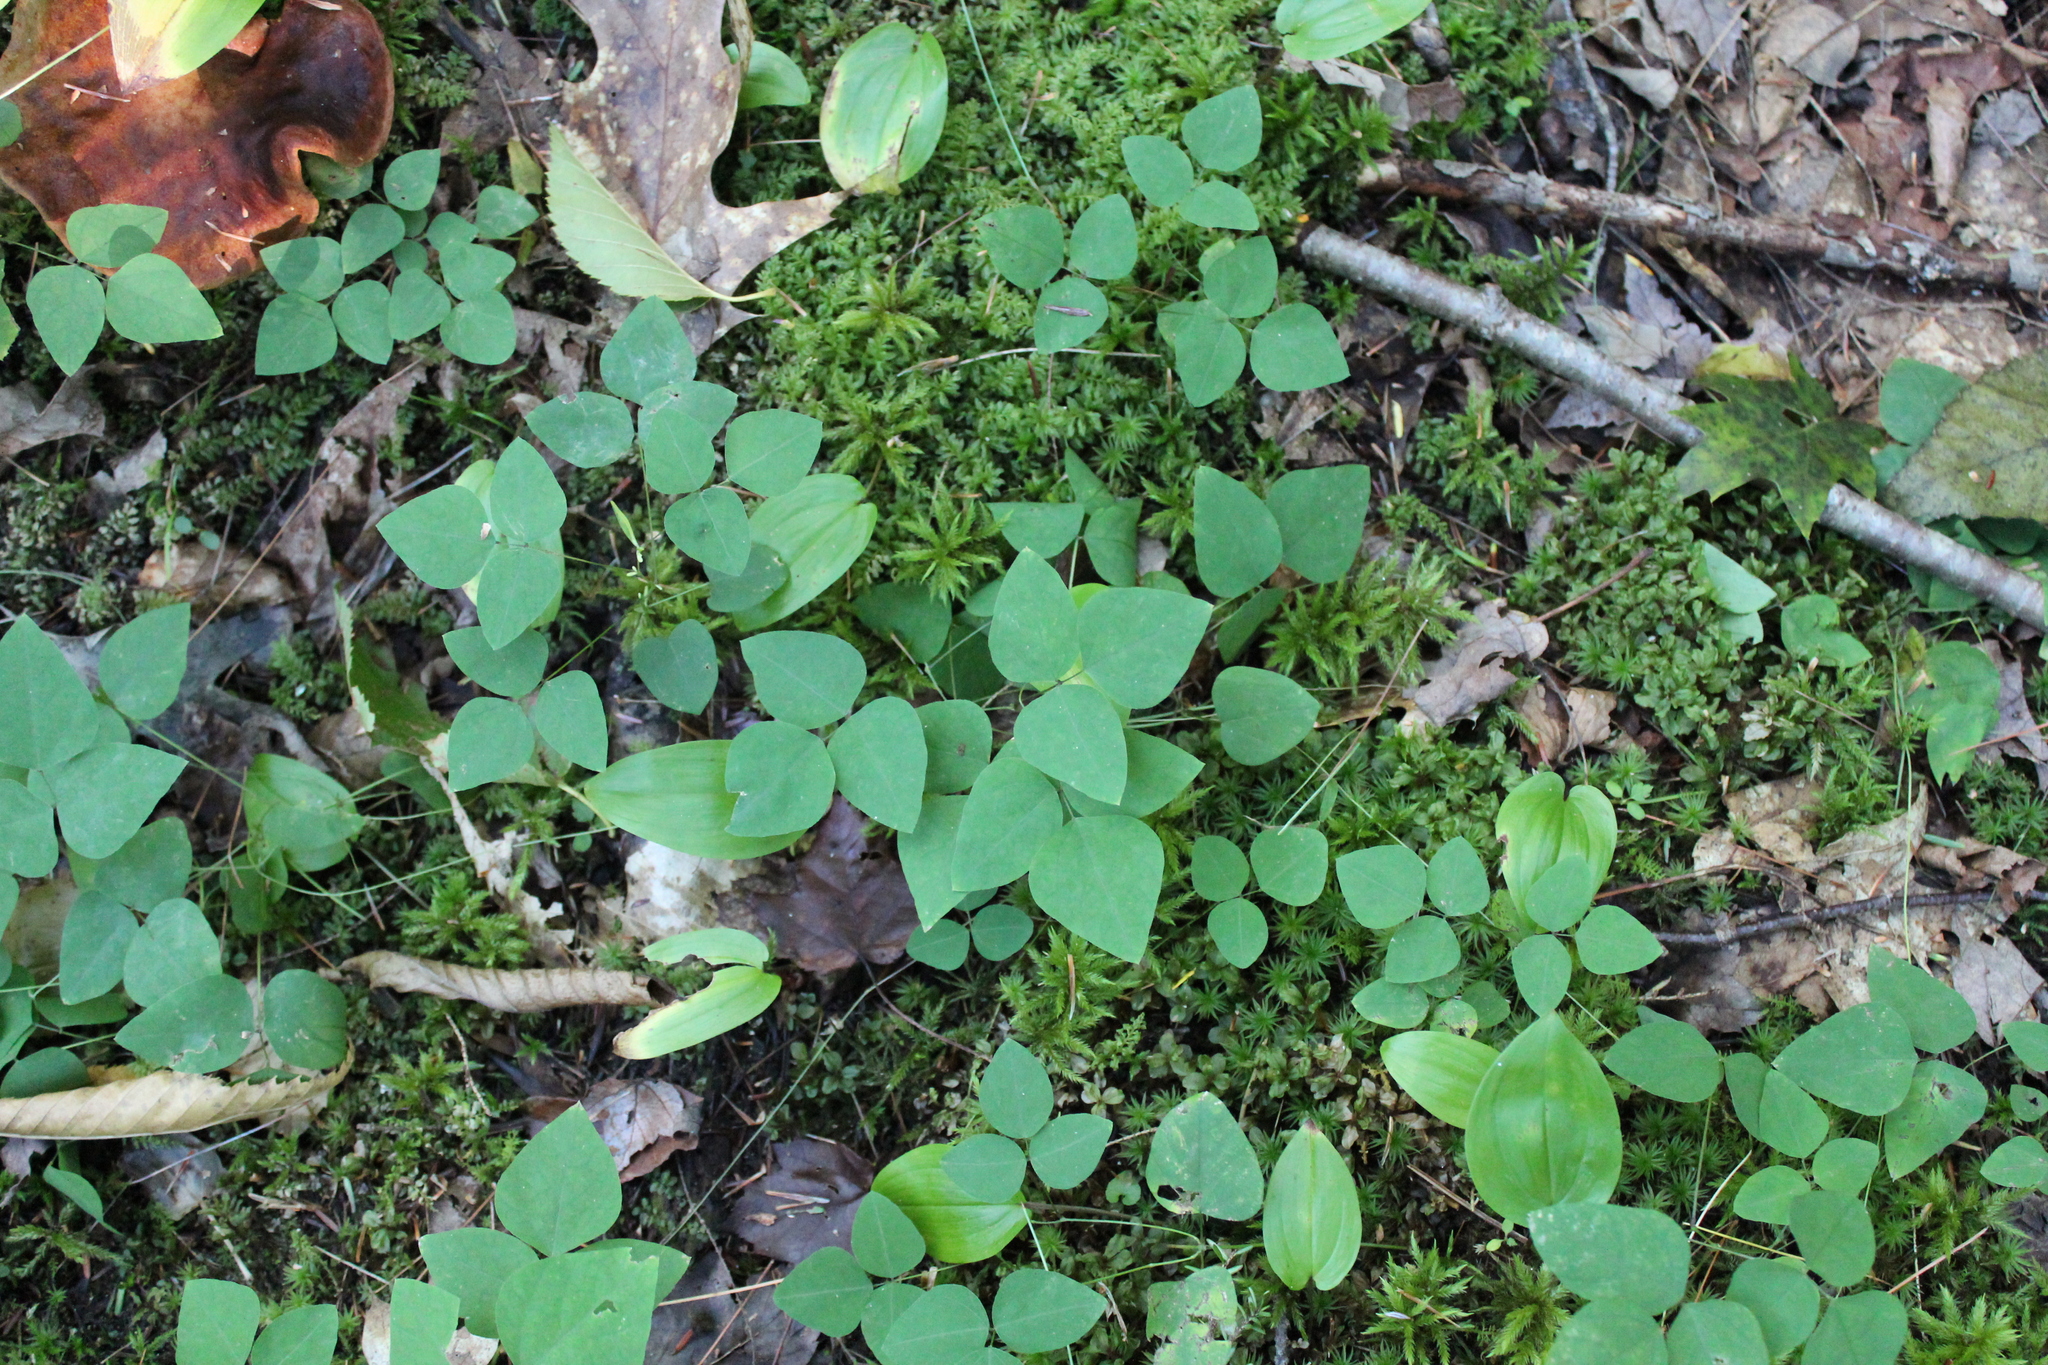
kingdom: Plantae
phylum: Tracheophyta
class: Magnoliopsida
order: Fabales
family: Fabaceae
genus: Amphicarpaea
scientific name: Amphicarpaea bracteata
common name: American hog peanut
